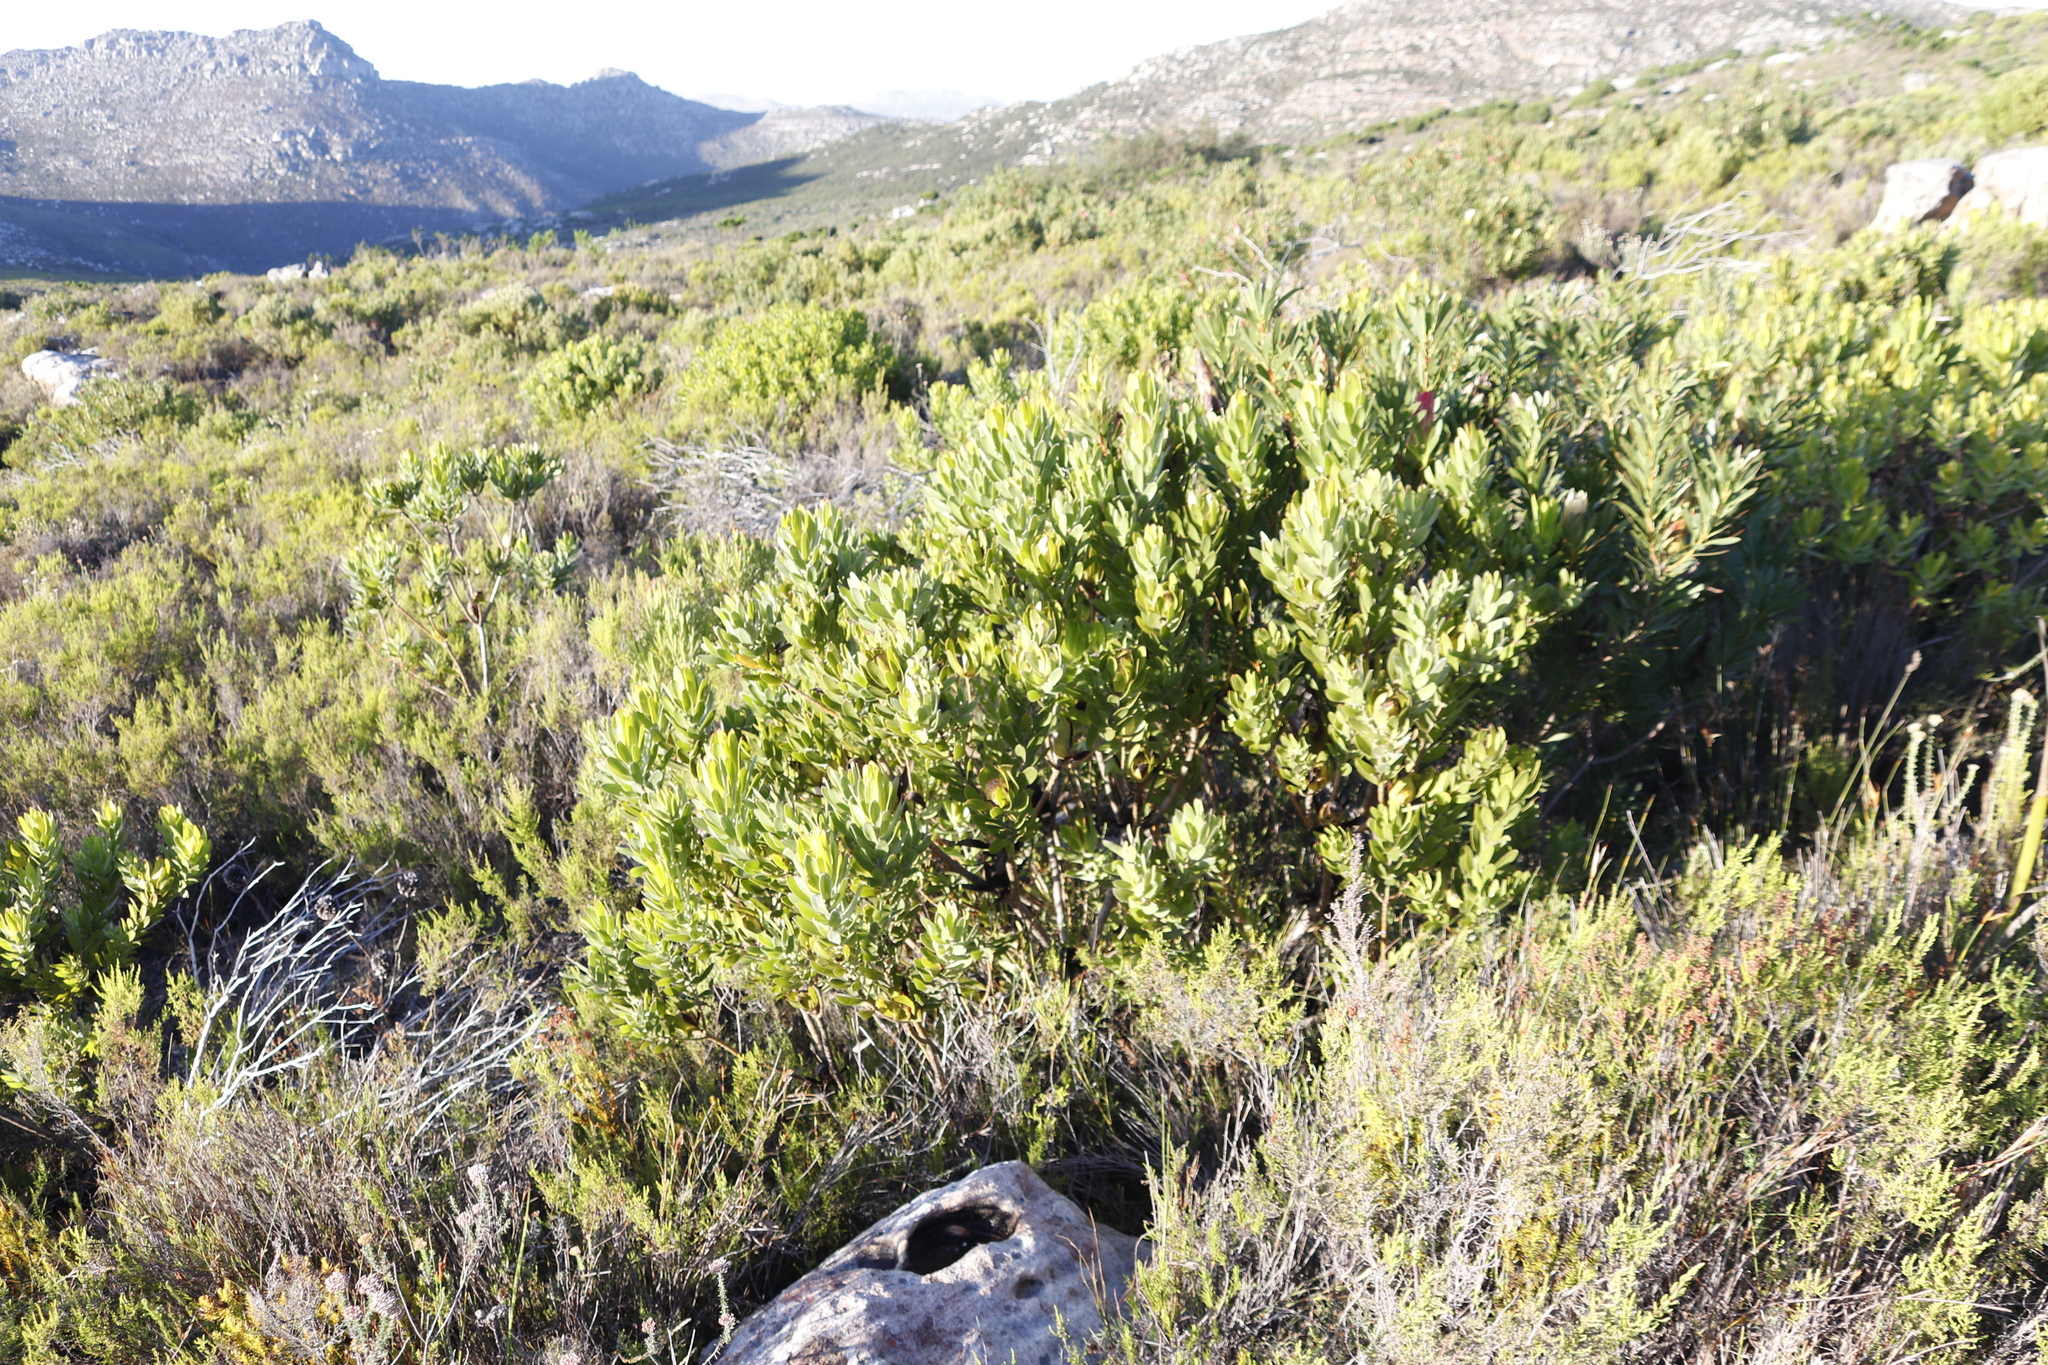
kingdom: Plantae
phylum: Tracheophyta
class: Magnoliopsida
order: Proteales
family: Proteaceae
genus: Protea
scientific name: Protea lepidocarpodendron
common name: Black-bearded protea
